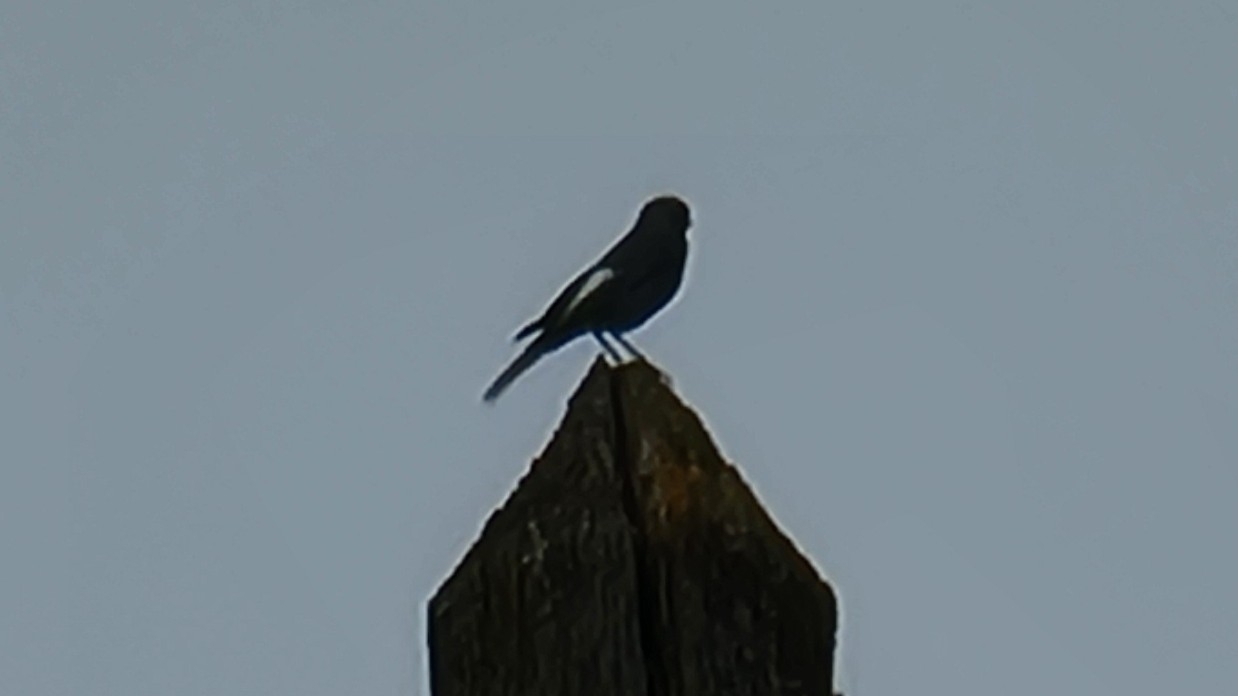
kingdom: Animalia
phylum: Chordata
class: Aves
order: Passeriformes
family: Muscicapidae
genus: Phoenicurus
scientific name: Phoenicurus ochruros
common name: Black redstart
